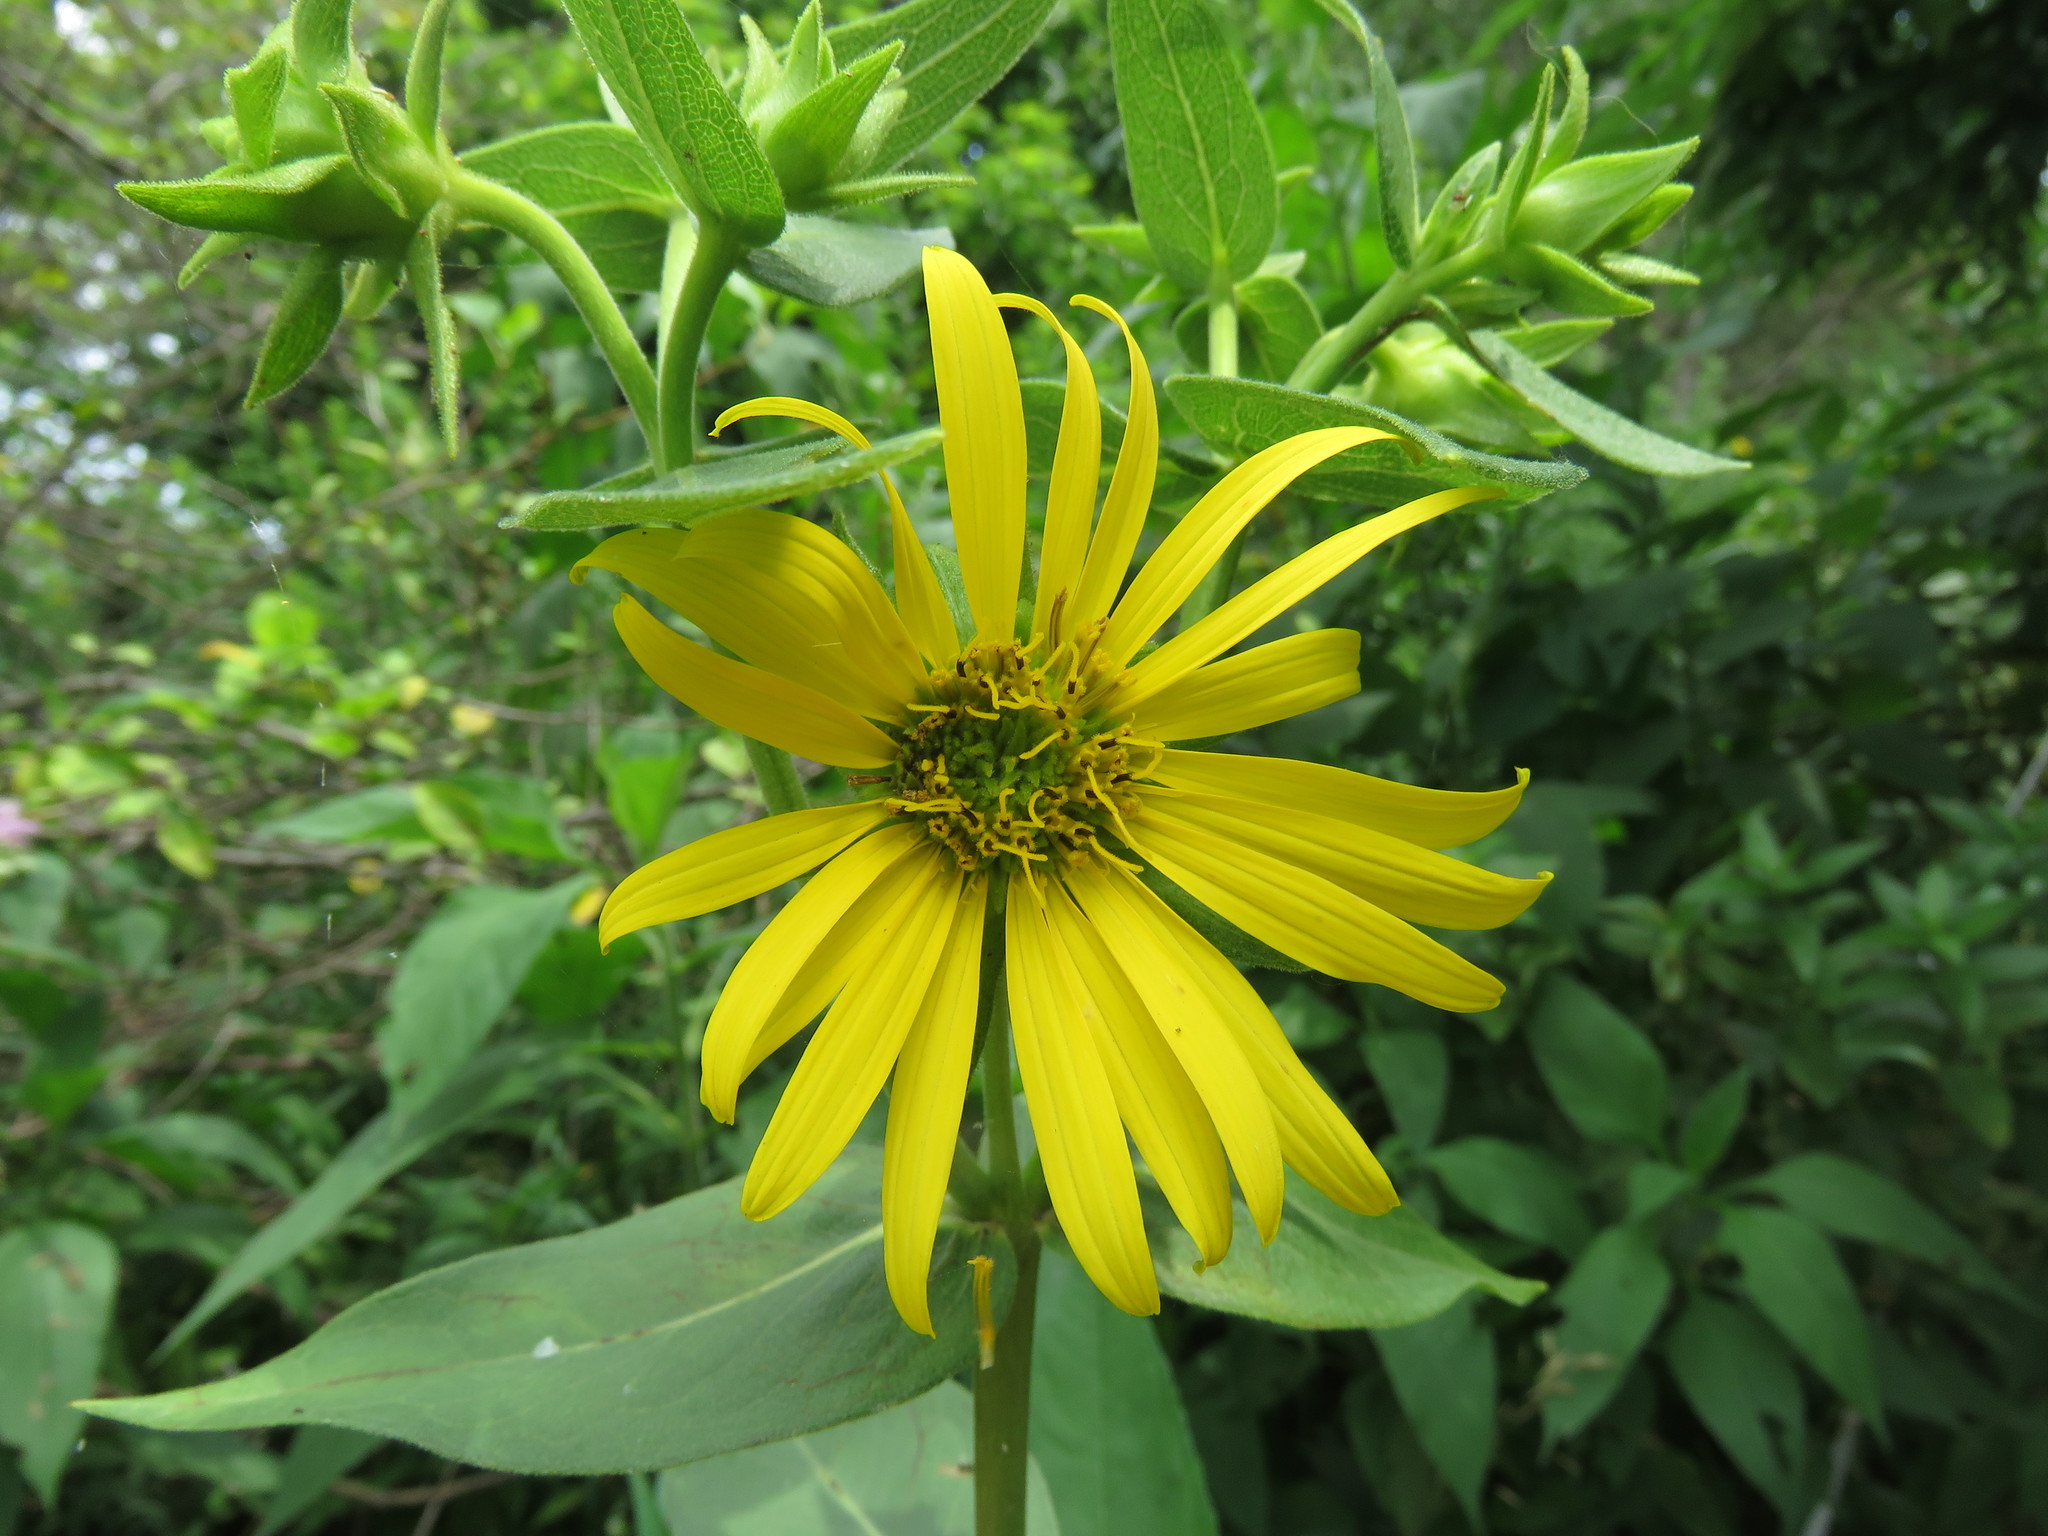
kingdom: Plantae
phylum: Tracheophyta
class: Magnoliopsida
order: Asterales
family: Asteraceae
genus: Silphium
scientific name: Silphium integrifolium
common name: Whole-leaf rosinweed
